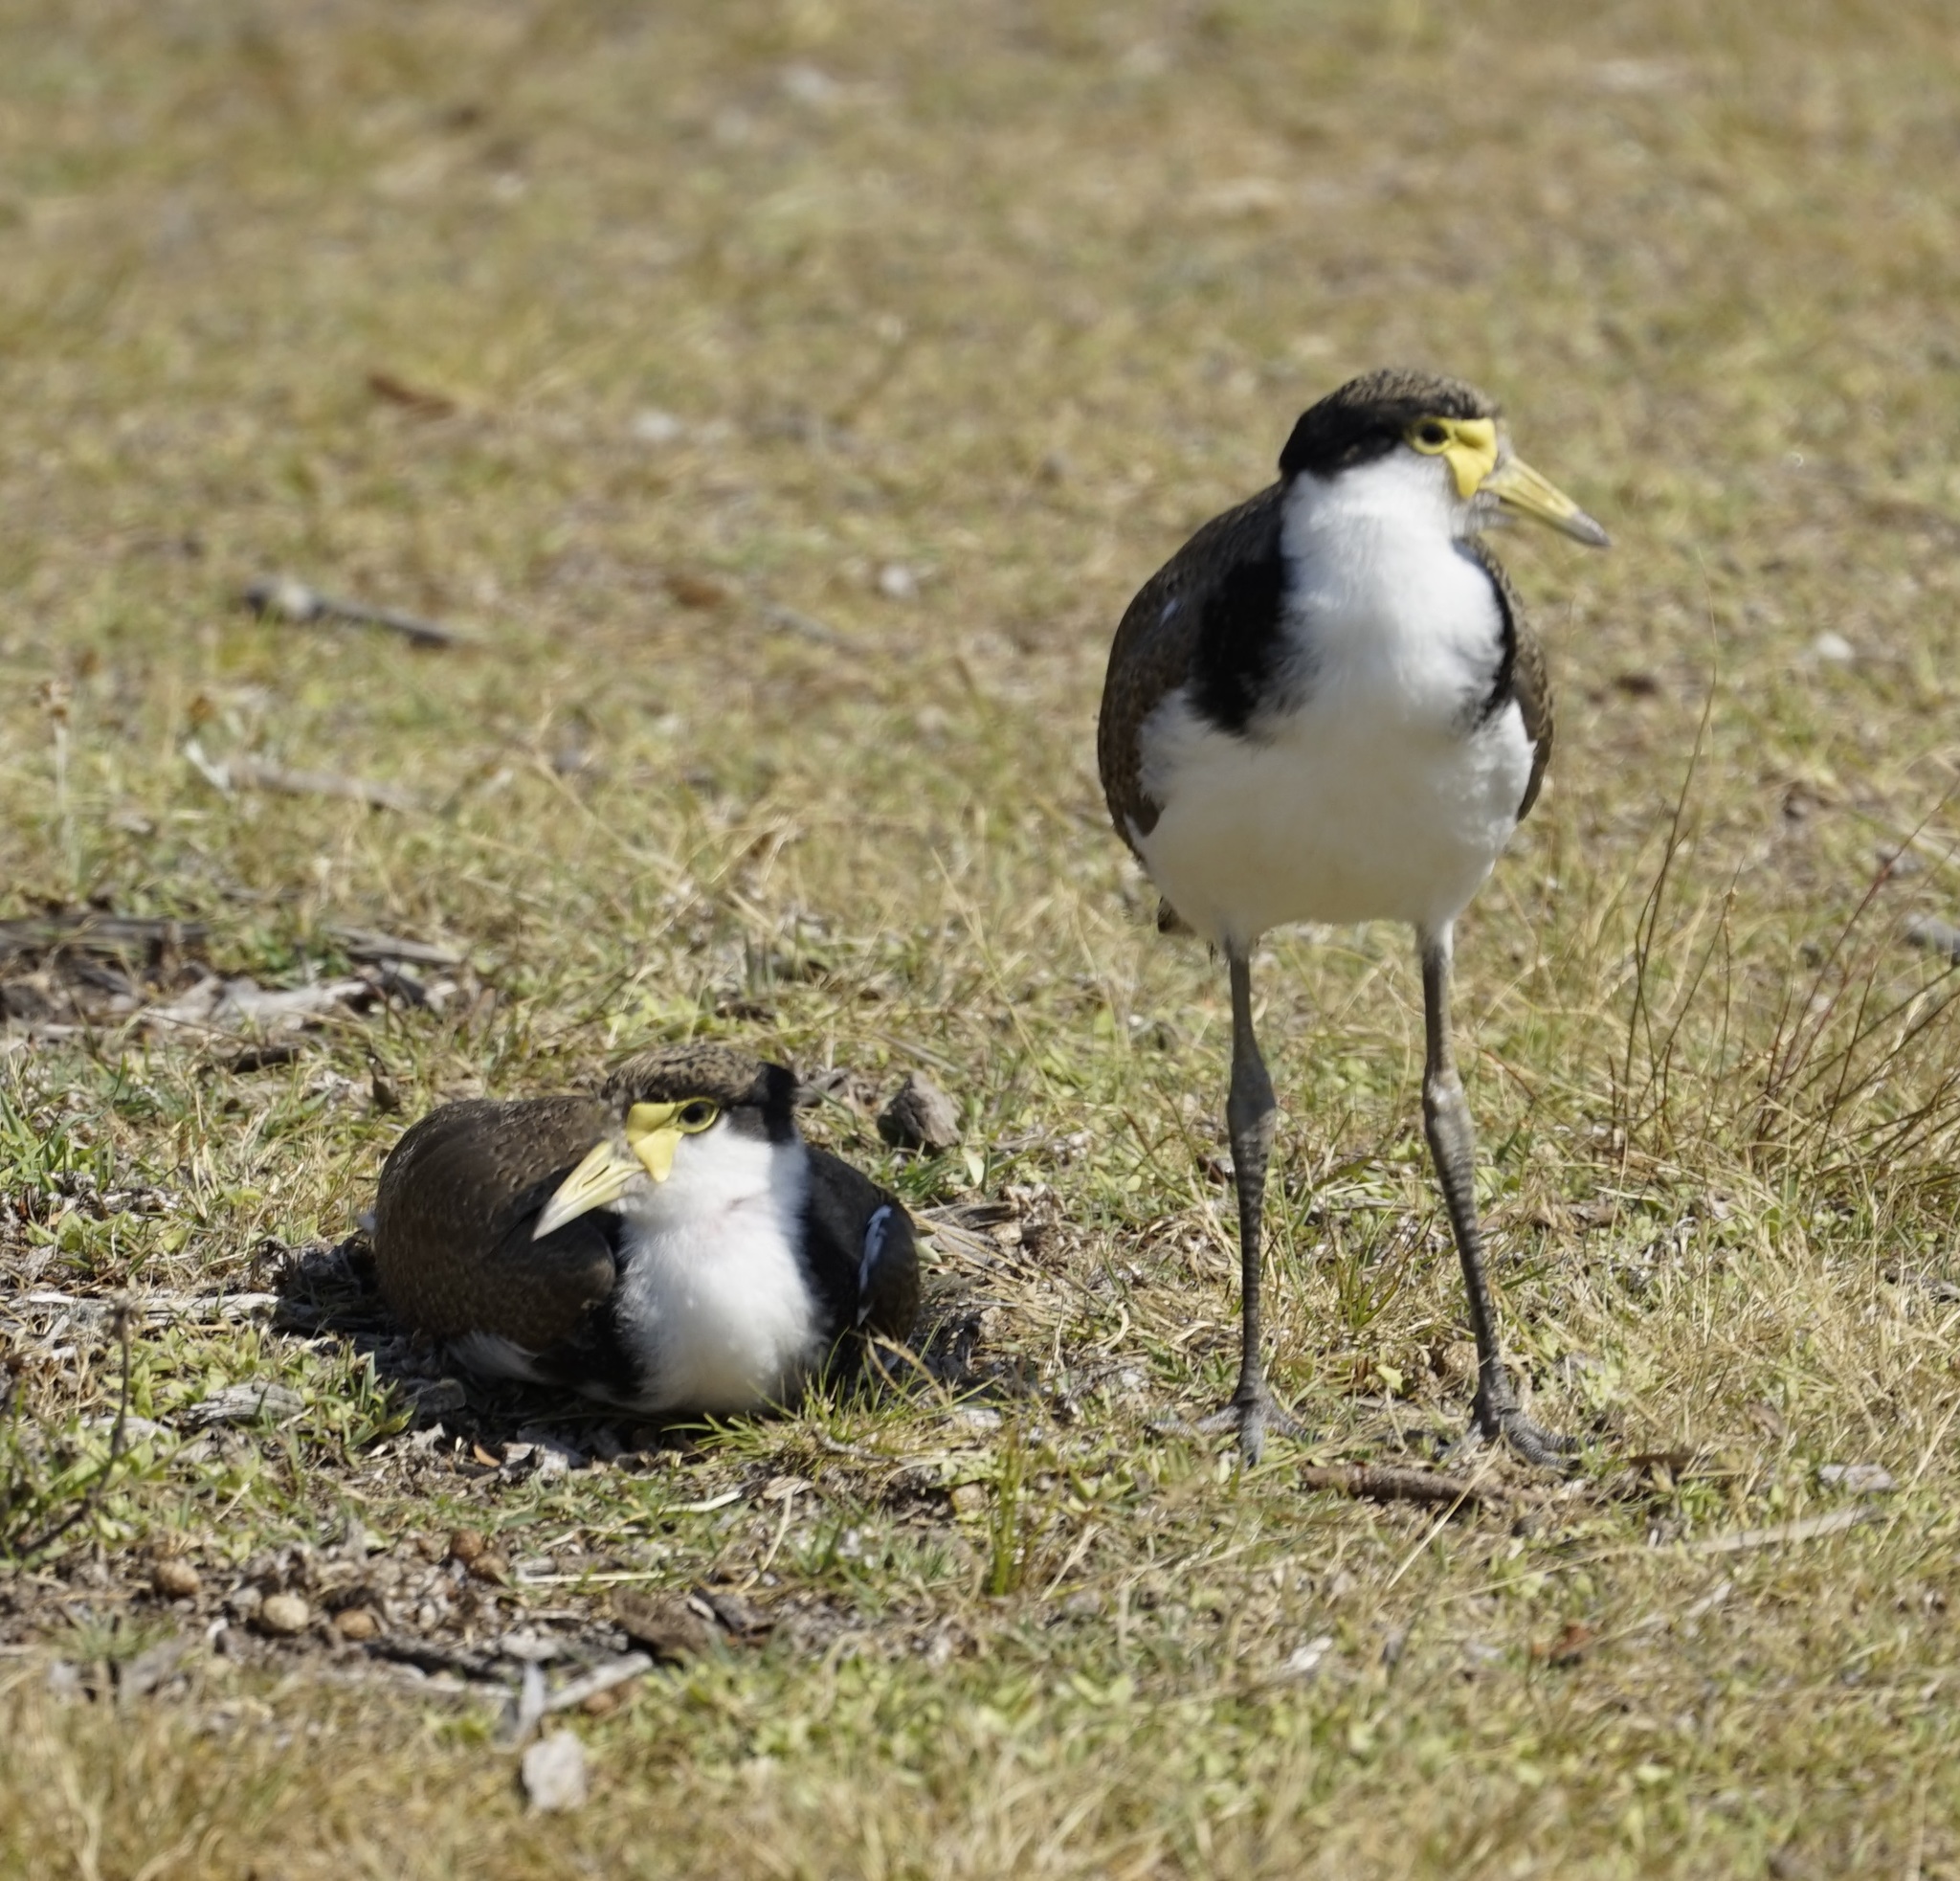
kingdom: Animalia
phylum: Chordata
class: Aves
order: Charadriiformes
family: Charadriidae
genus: Vanellus
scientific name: Vanellus miles
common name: Masked lapwing
